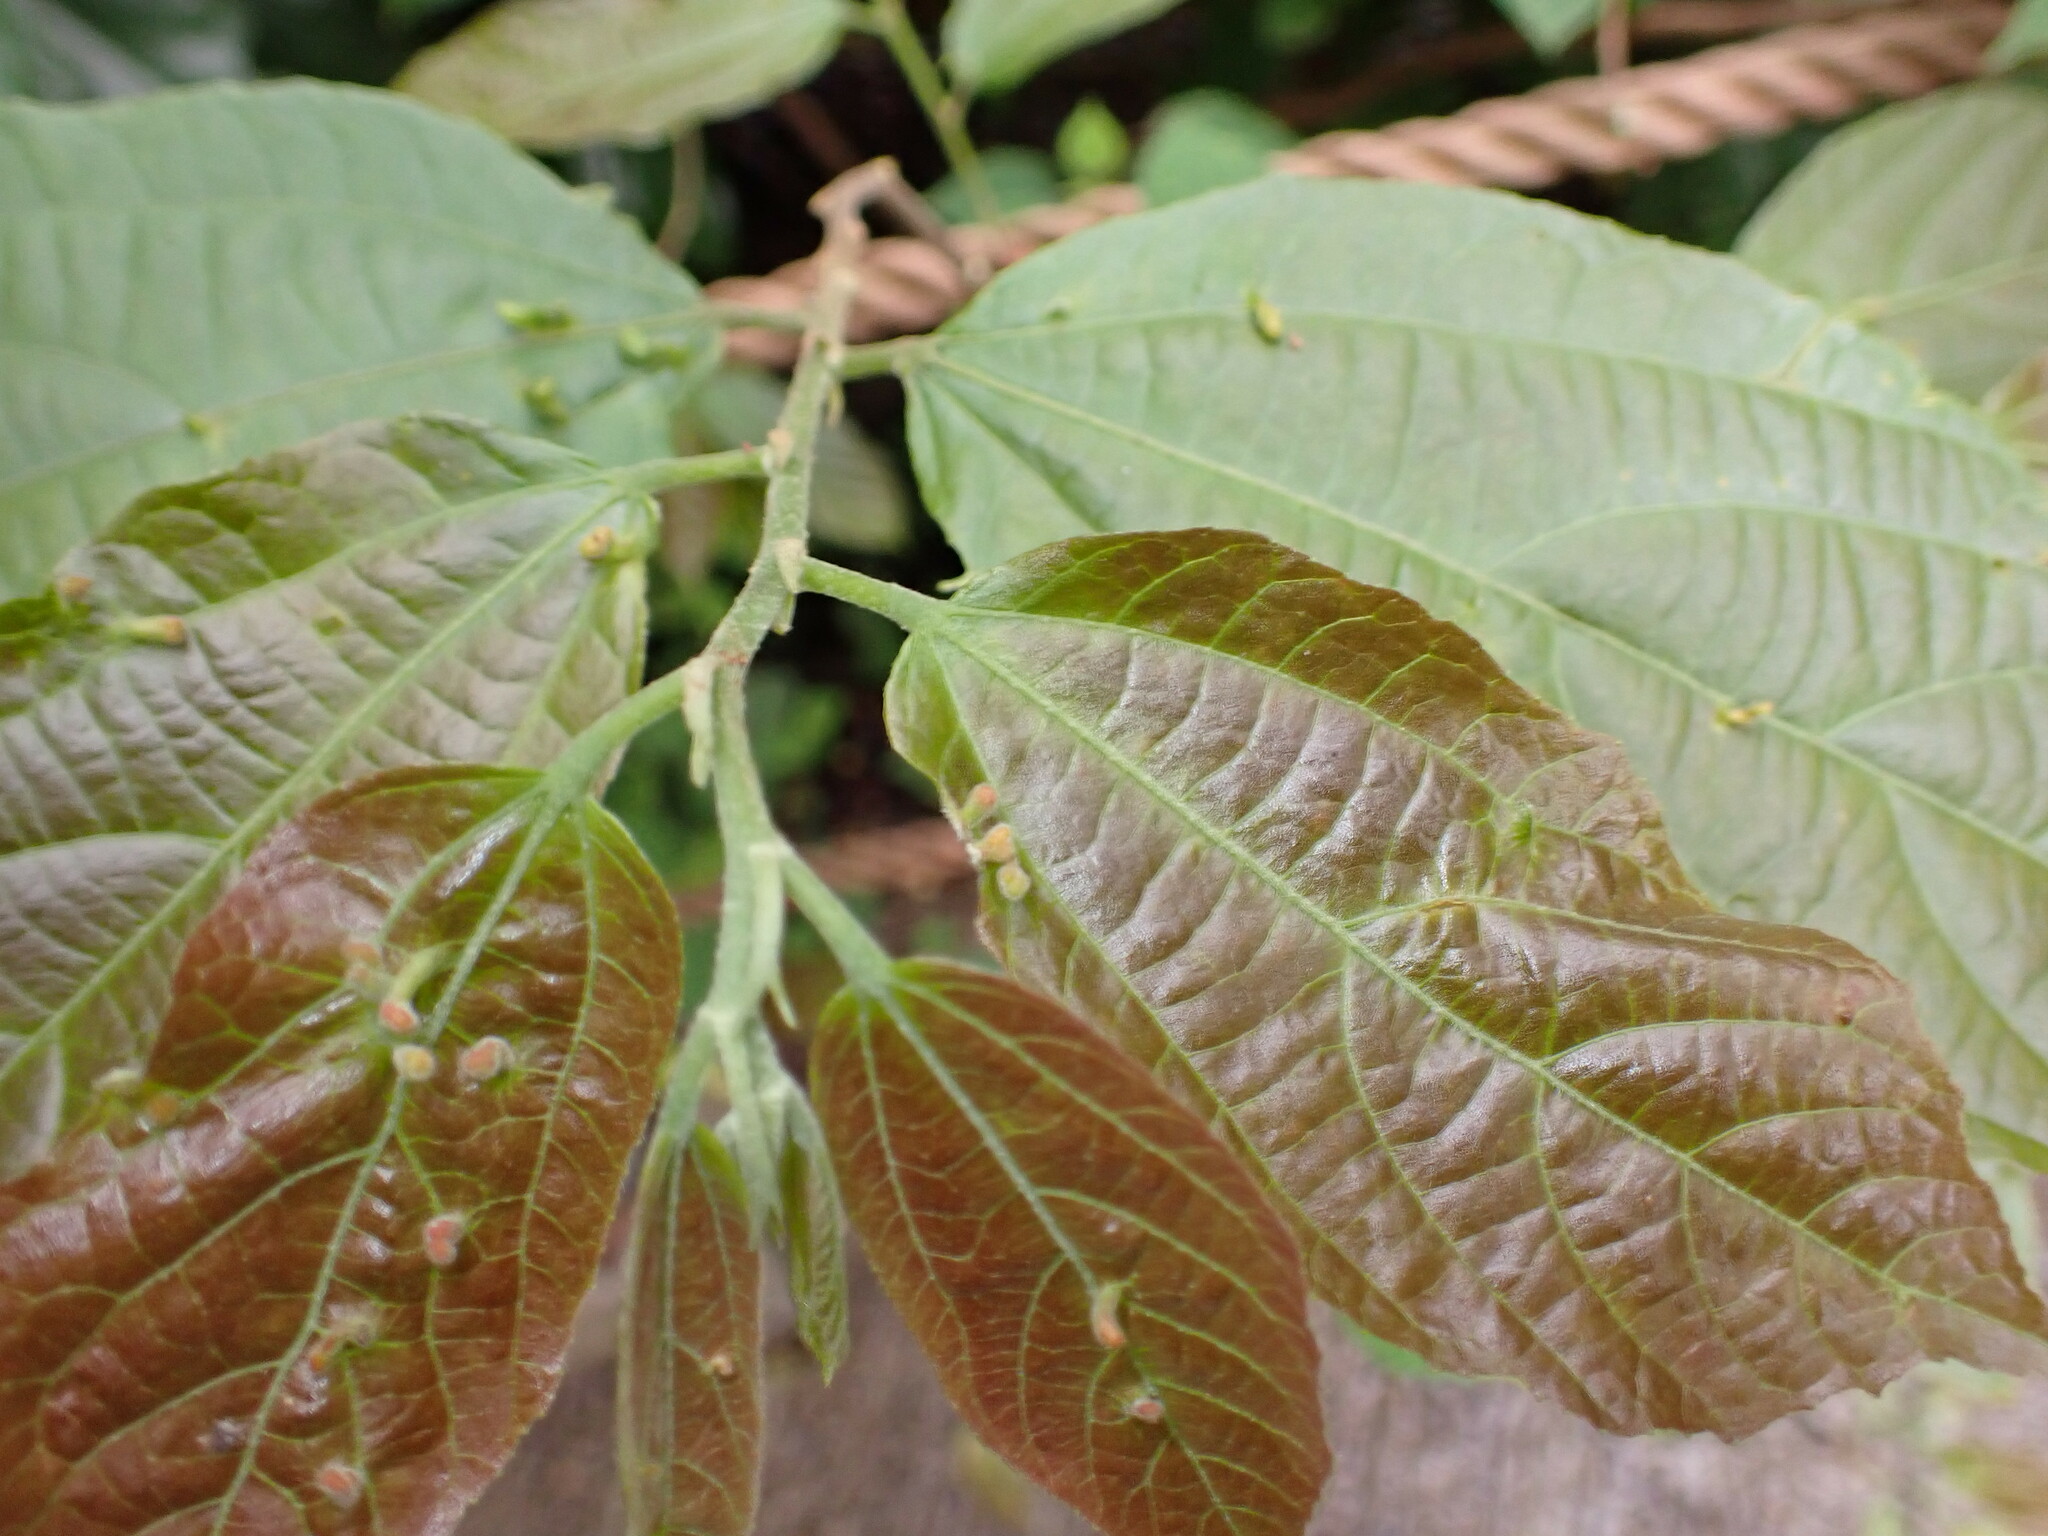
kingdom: Plantae
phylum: Tracheophyta
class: Magnoliopsida
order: Malvales
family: Malvaceae
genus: Microcos
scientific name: Microcos paniculata
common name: Microcos
